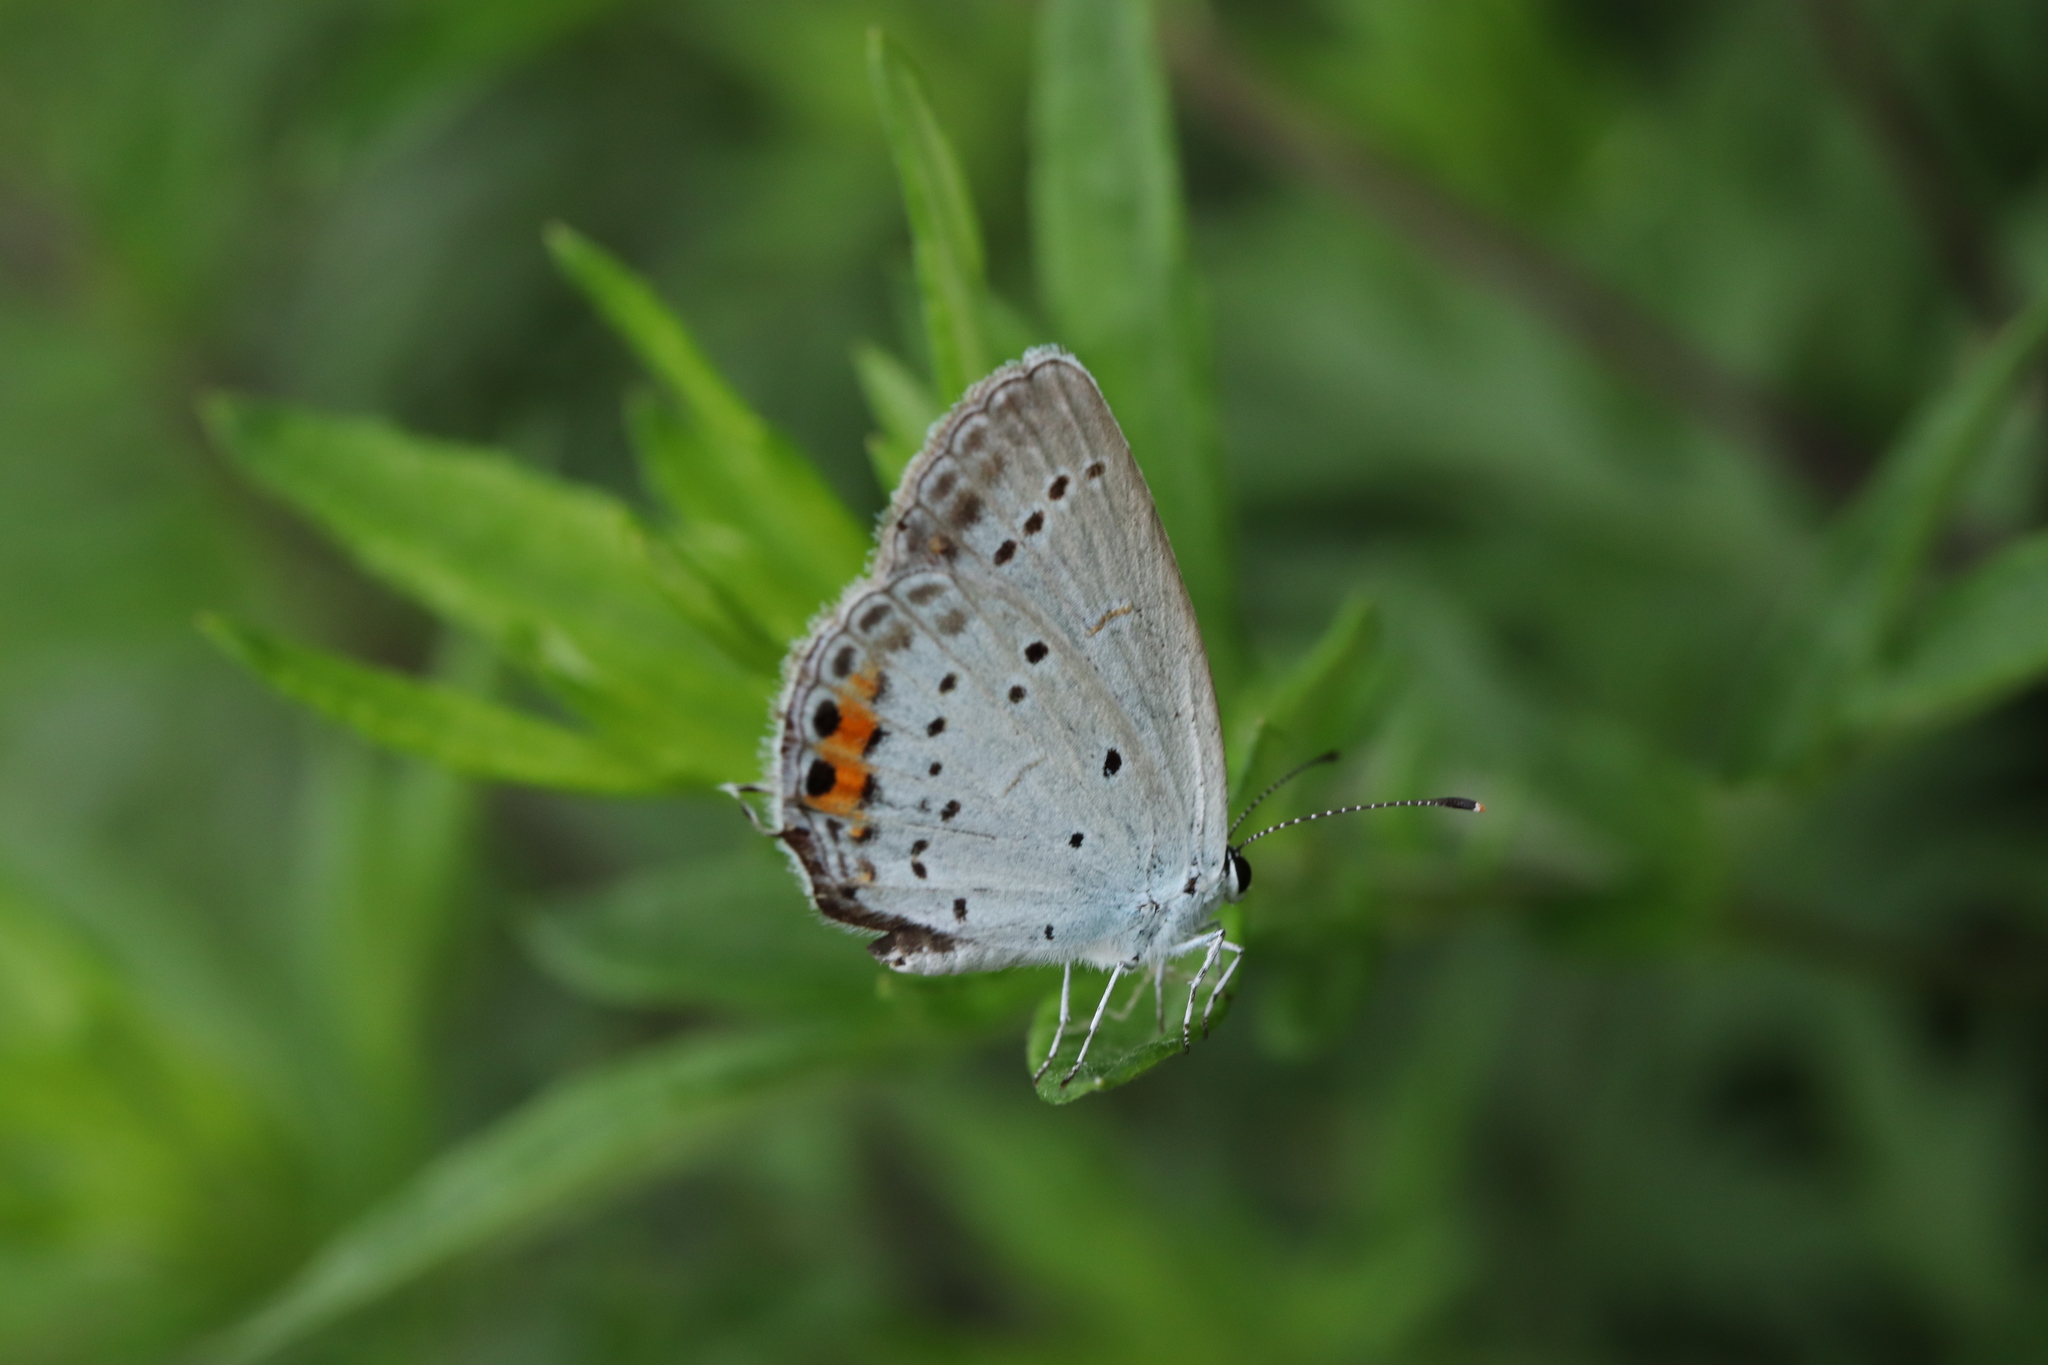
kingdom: Animalia
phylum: Arthropoda
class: Insecta
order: Lepidoptera
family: Lycaenidae
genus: Elkalyce
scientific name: Elkalyce argiades
